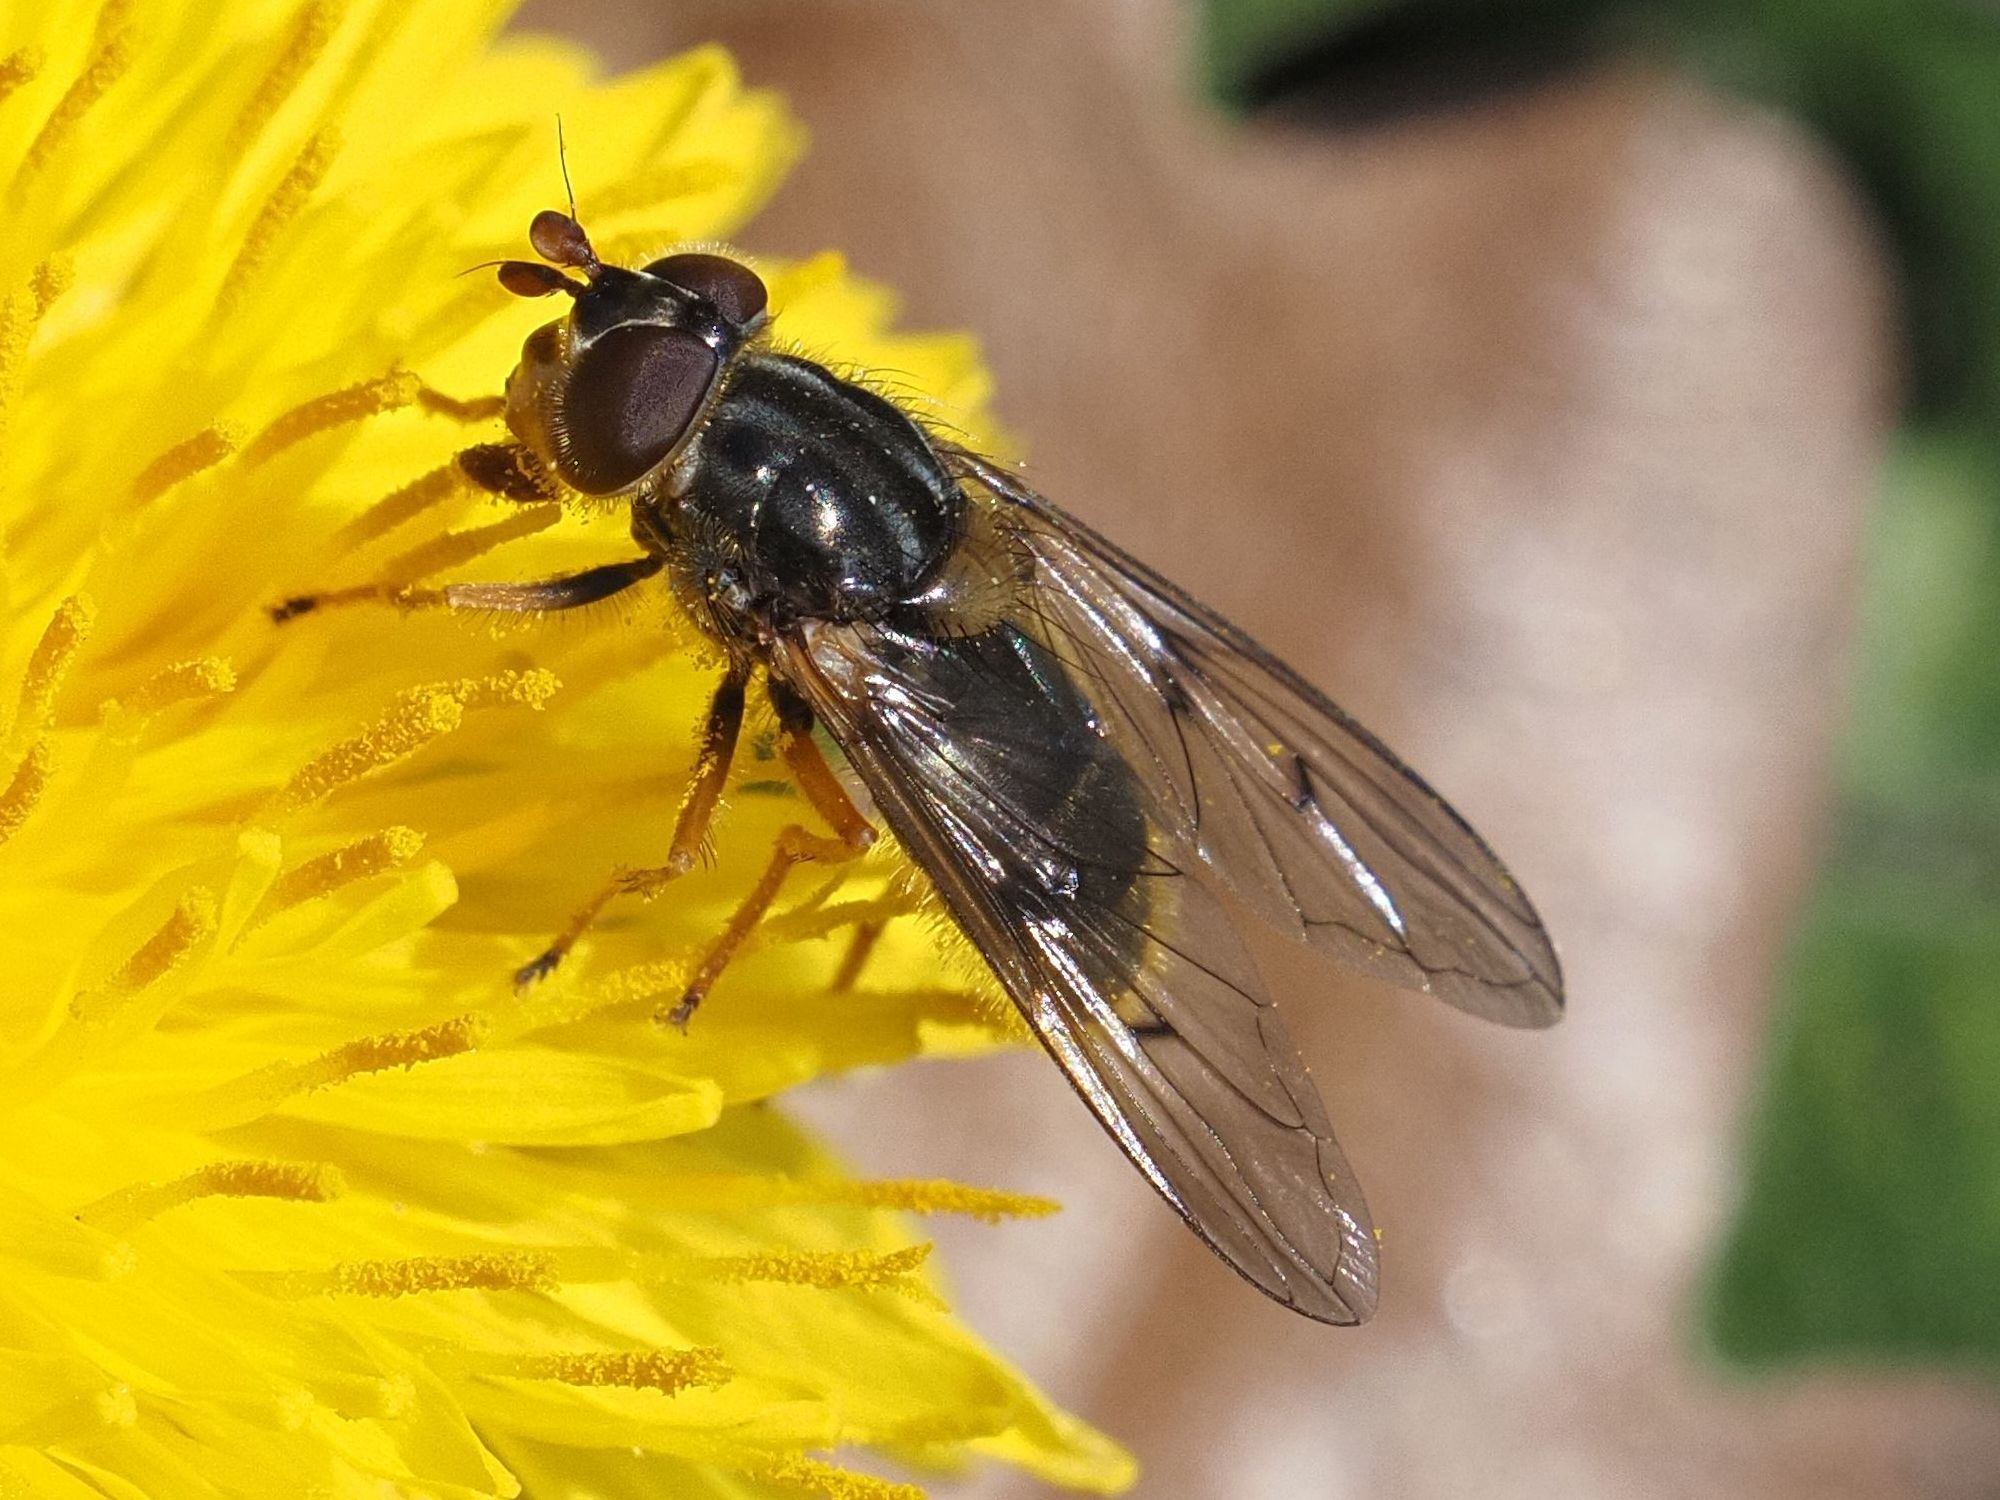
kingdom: Animalia
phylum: Arthropoda
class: Insecta
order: Diptera
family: Syrphidae
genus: Ferdinandea
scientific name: Ferdinandea cuprea
